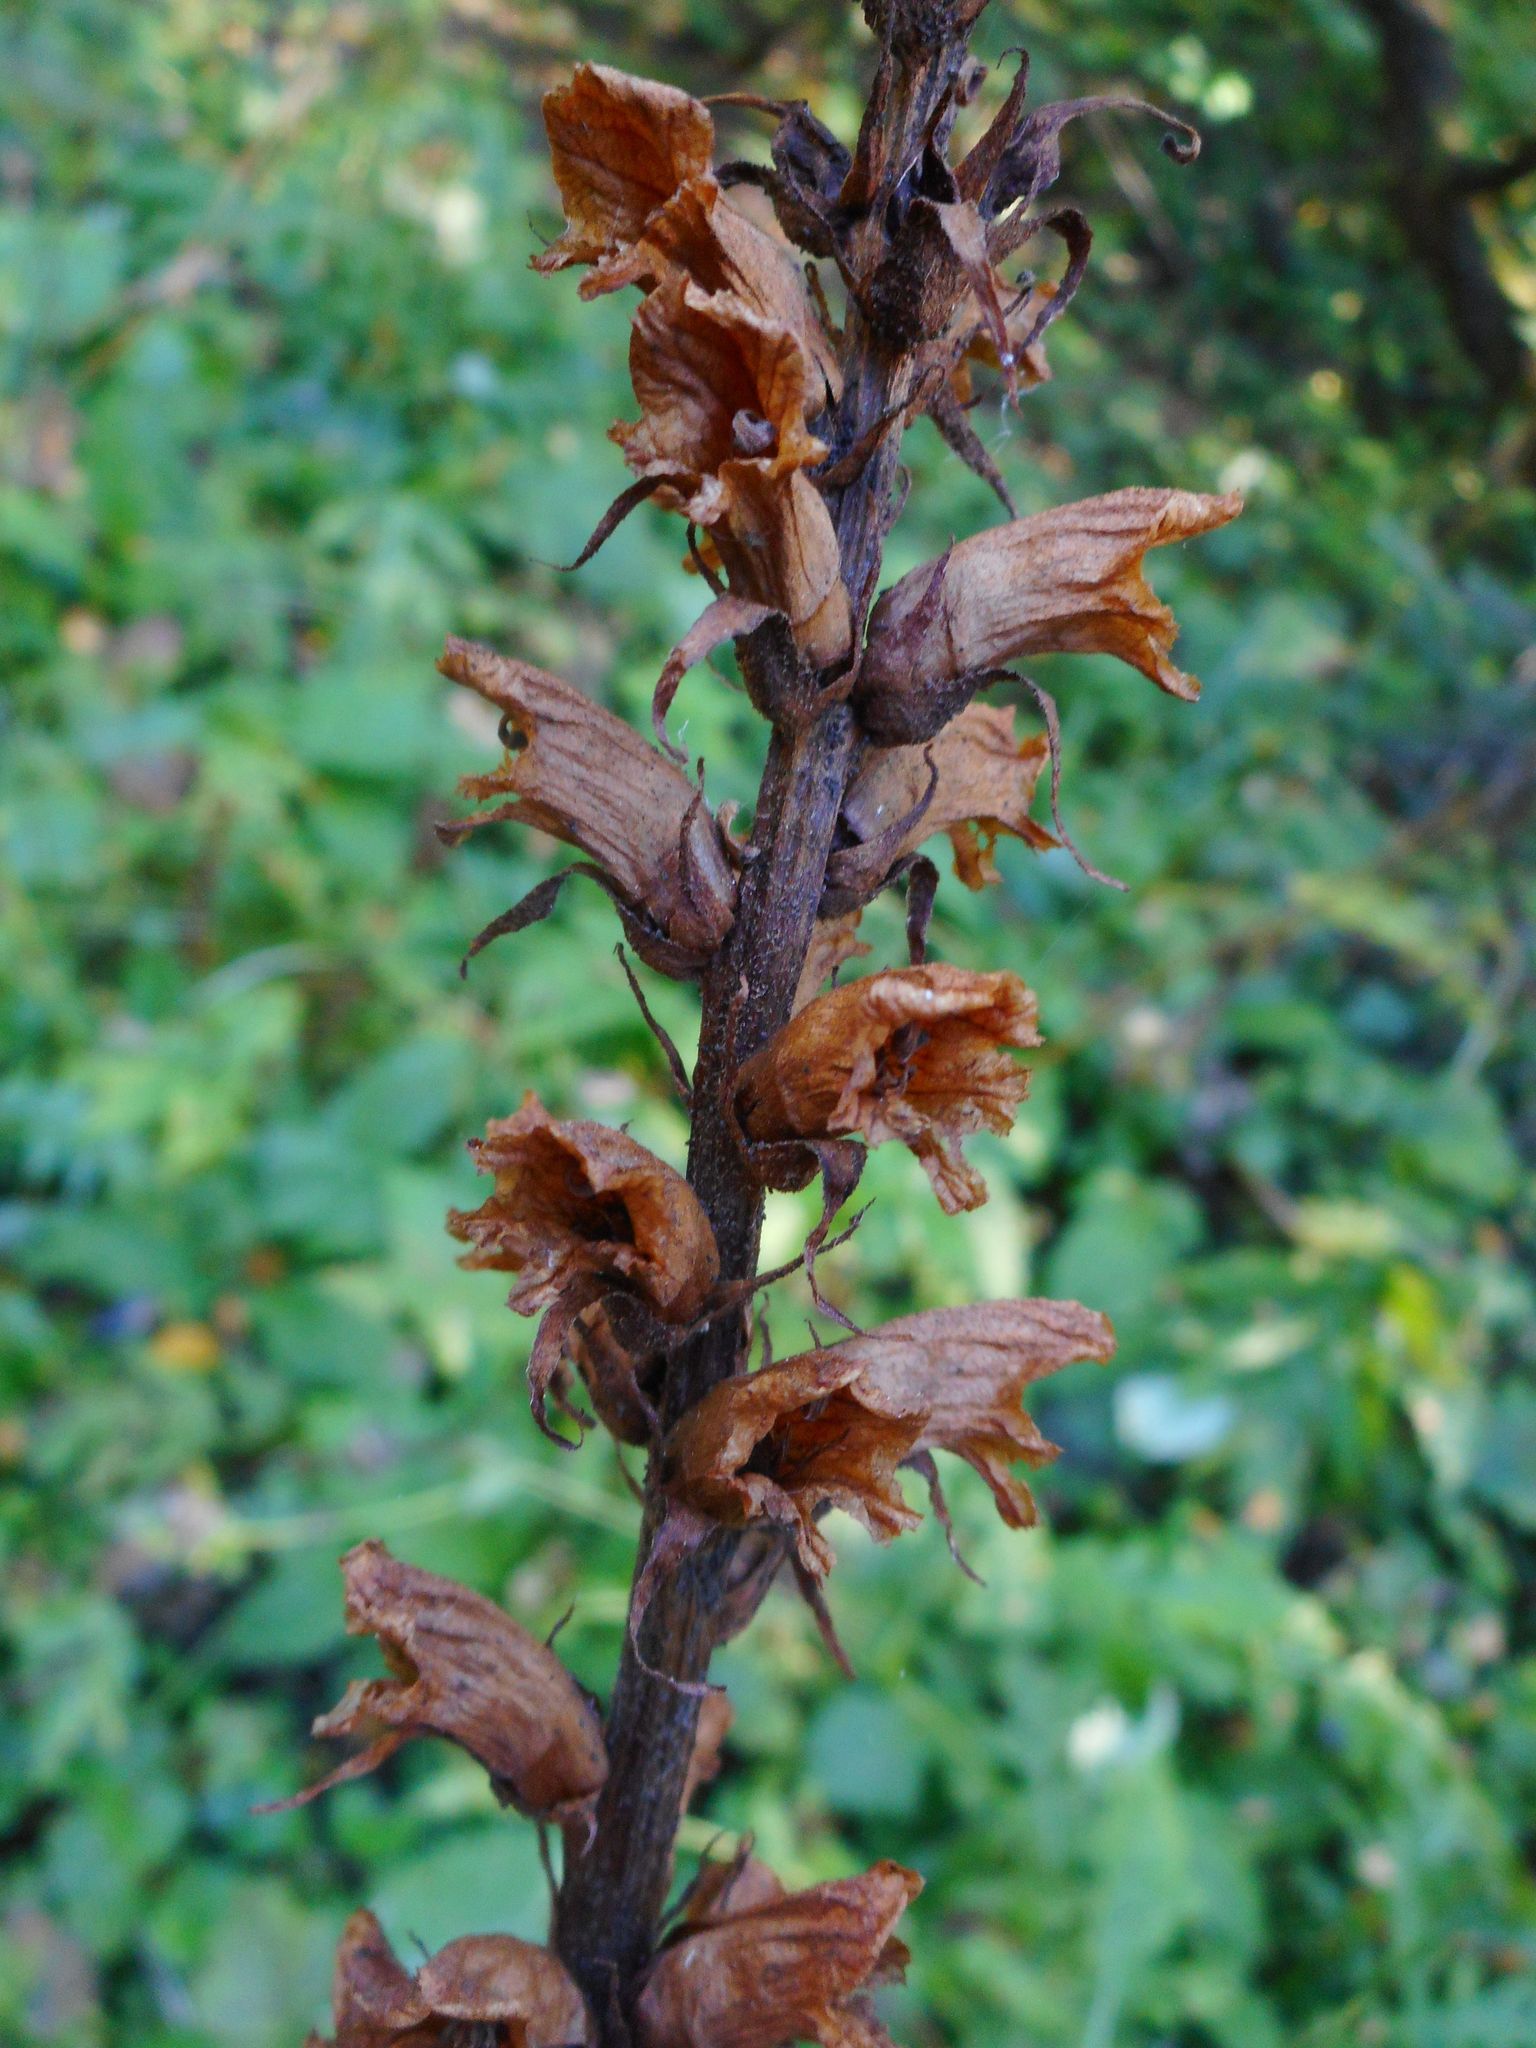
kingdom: Plantae
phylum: Tracheophyta
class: Magnoliopsida
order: Lamiales
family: Orobanchaceae
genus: Orobanche
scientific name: Orobanche reticulata
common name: Thistle broomrape
